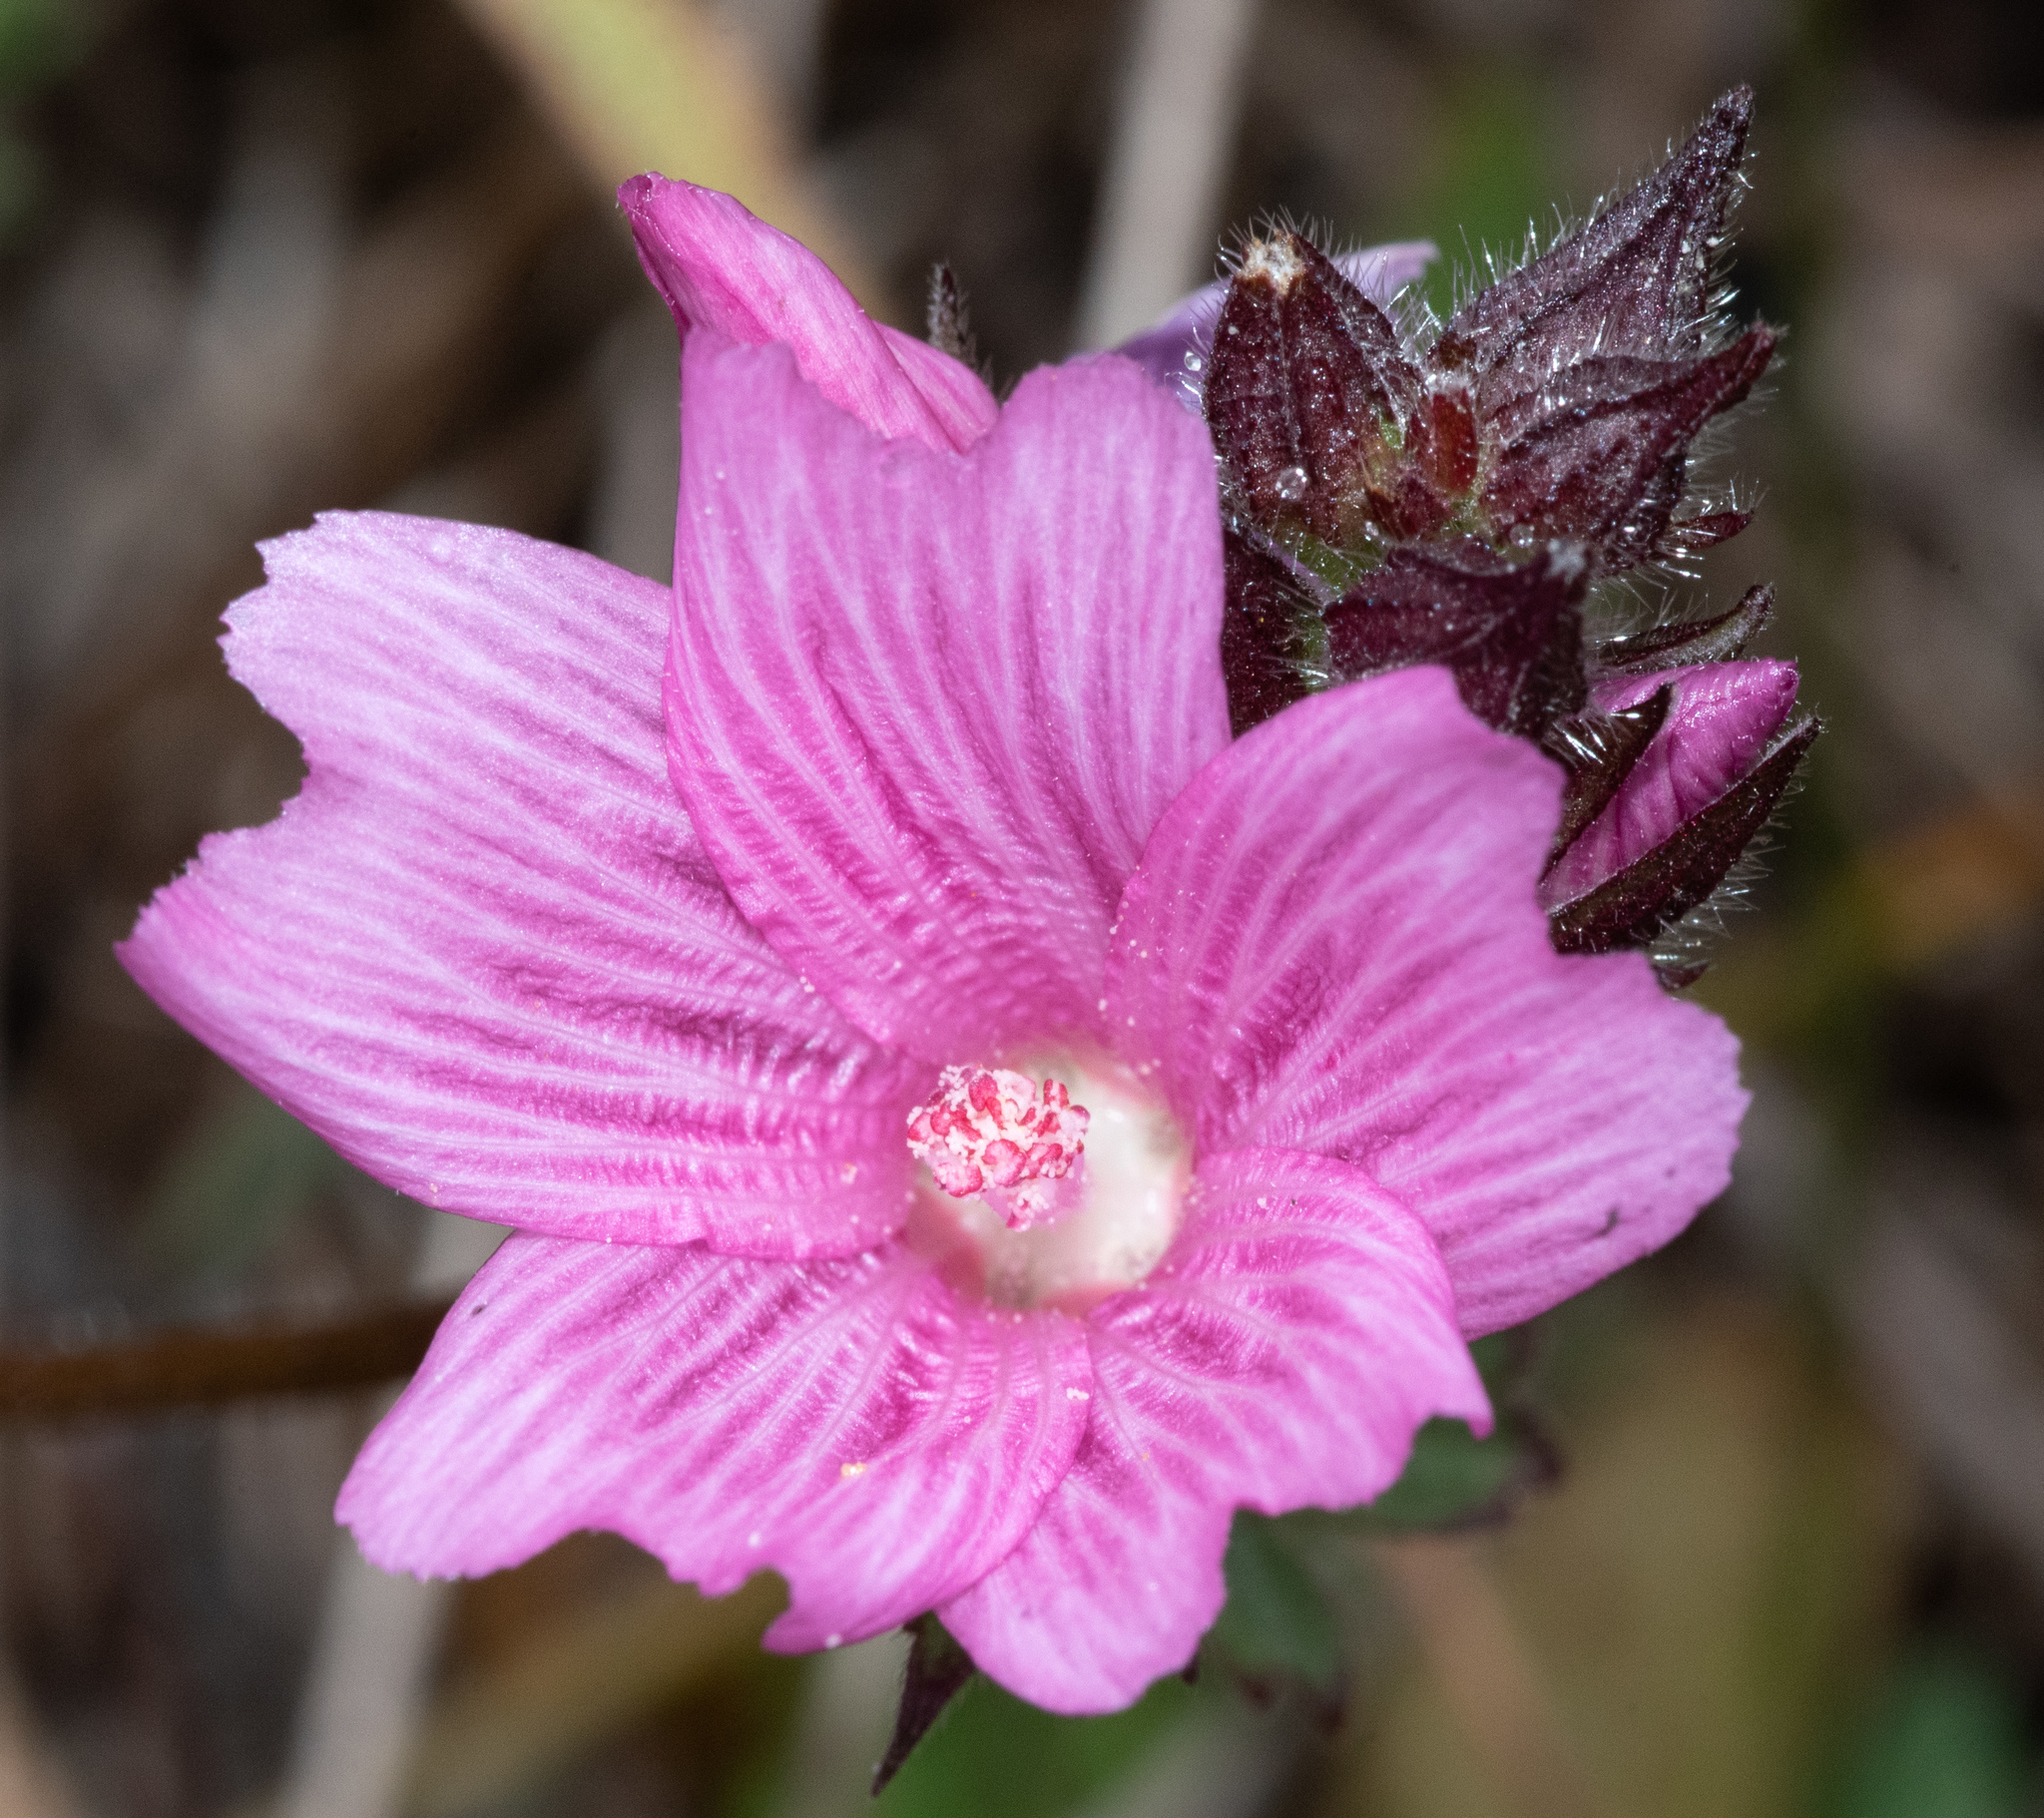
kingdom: Plantae
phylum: Tracheophyta
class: Magnoliopsida
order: Malvales
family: Malvaceae
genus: Sidalcea
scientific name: Sidalcea malviflora
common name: Greek mallow
